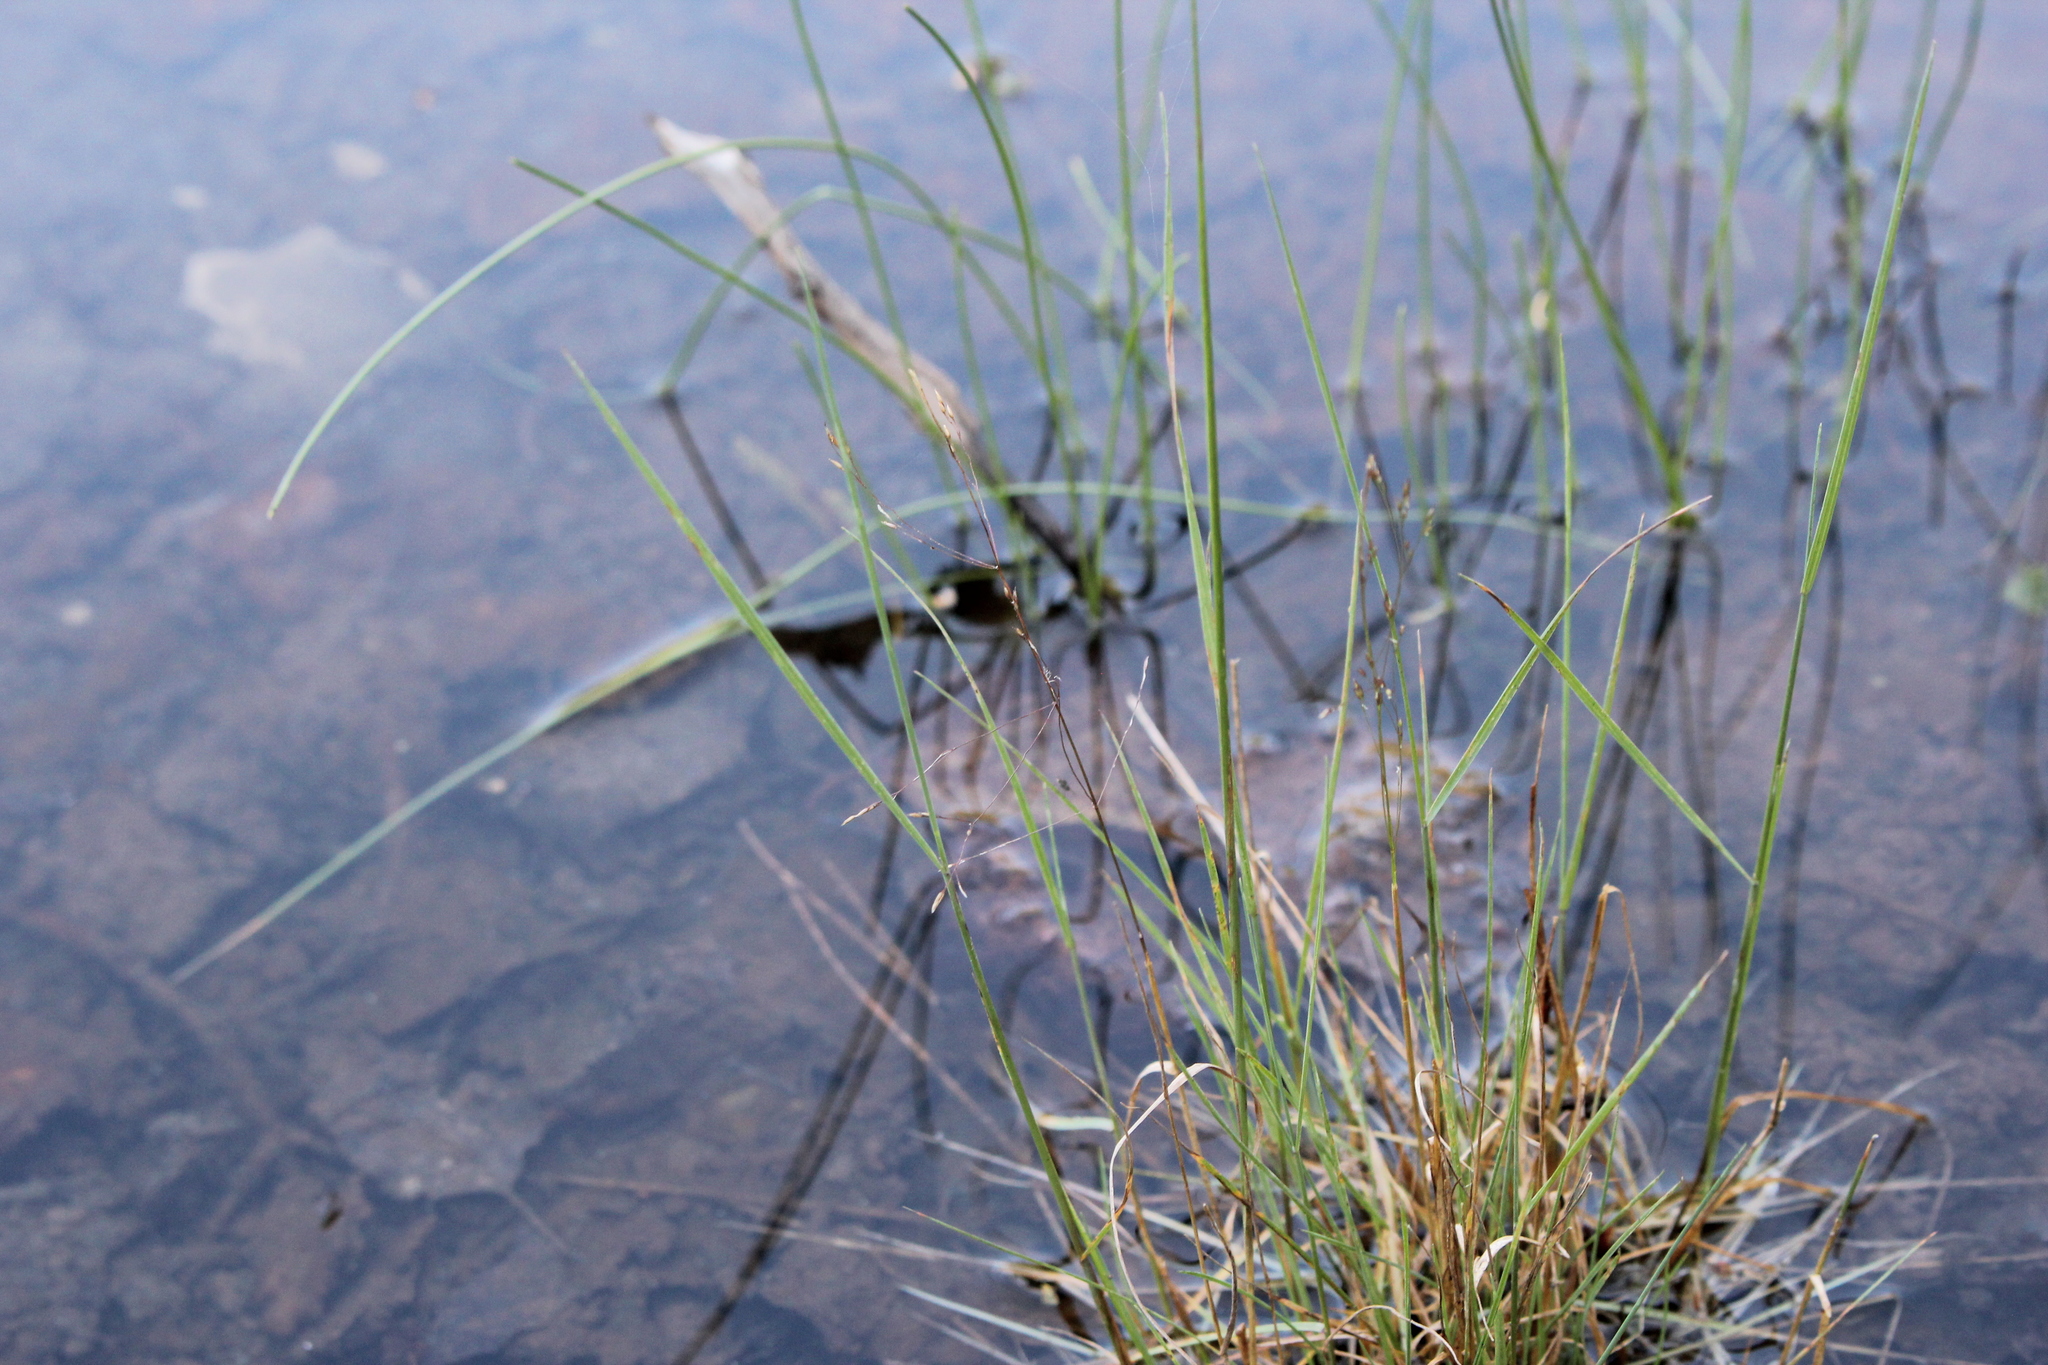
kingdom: Plantae
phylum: Tracheophyta
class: Liliopsida
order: Poales
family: Poaceae
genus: Agrostis
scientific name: Agrostis scabra
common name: Rough bent
